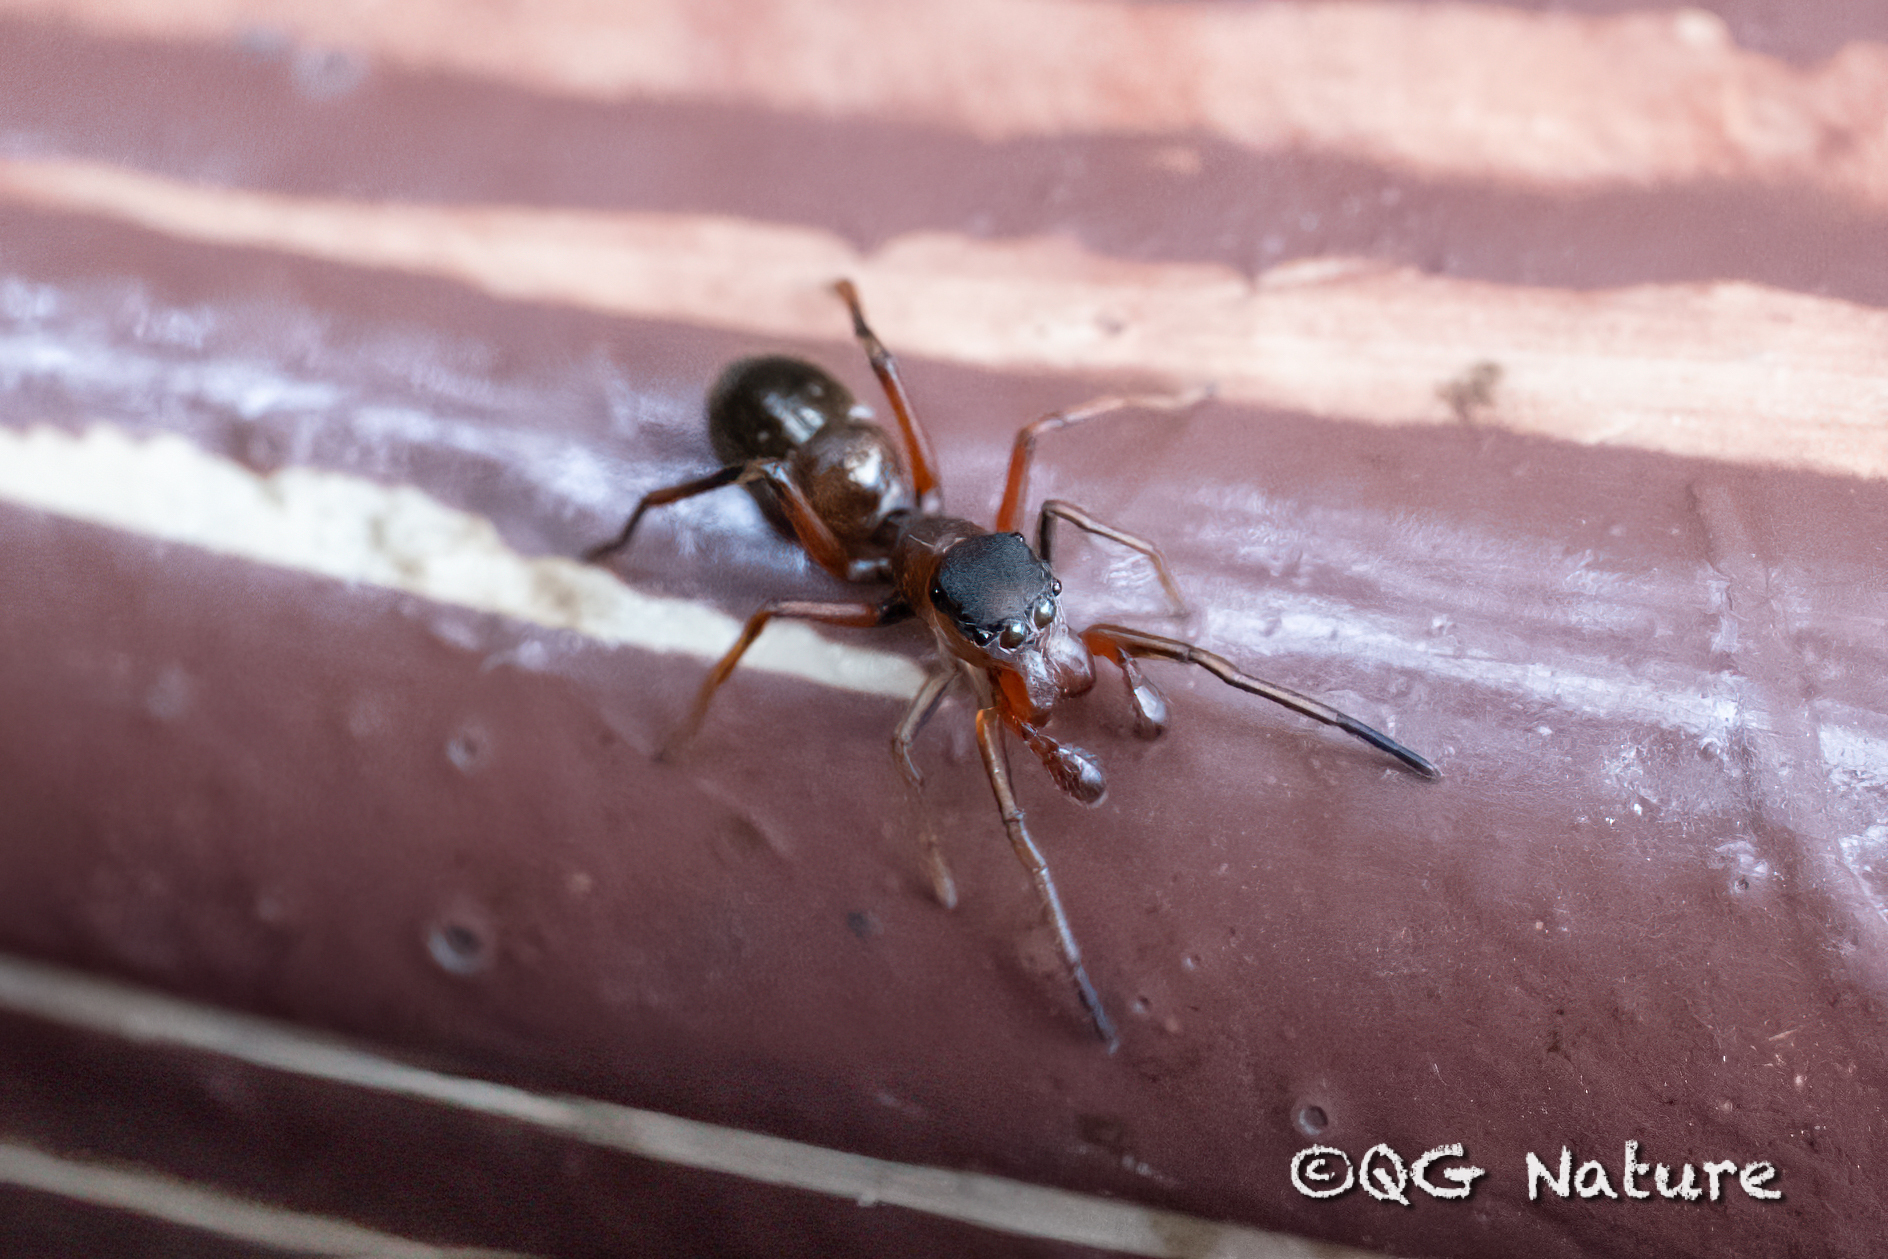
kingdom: Animalia
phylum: Arthropoda
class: Arachnida
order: Araneae
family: Salticidae
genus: Myrmarachne
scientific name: Myrmarachne formicaria
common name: Ant mimic jumping spider
